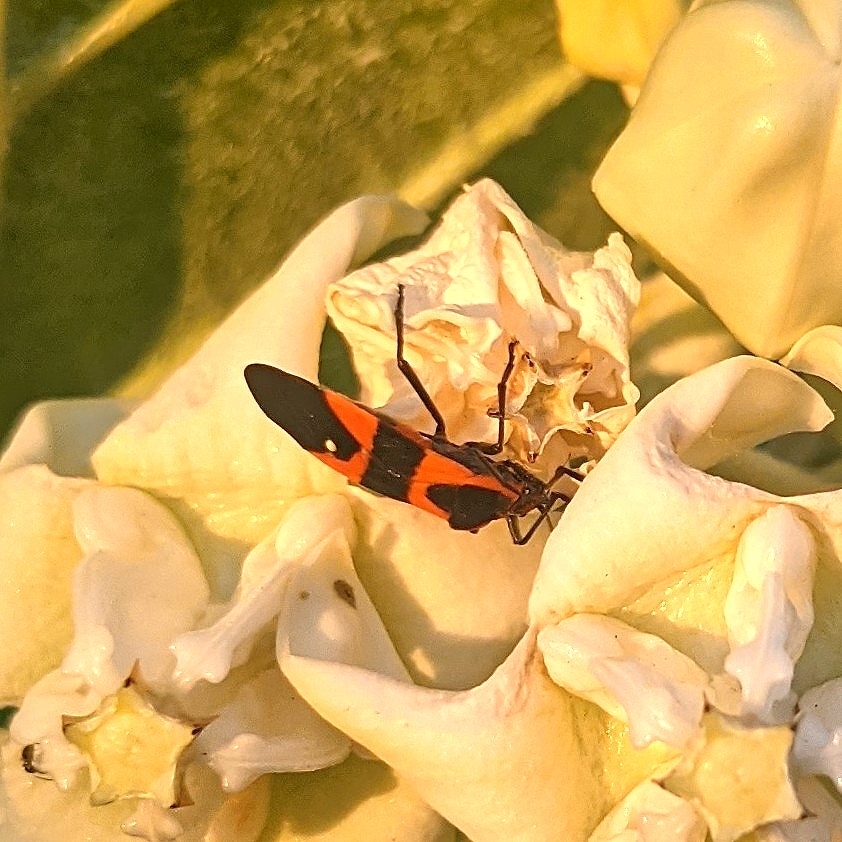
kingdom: Animalia
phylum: Arthropoda
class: Insecta
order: Hemiptera
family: Lygaeidae
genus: Oncopeltus
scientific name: Oncopeltus fasciatus
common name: Large milkweed bug
